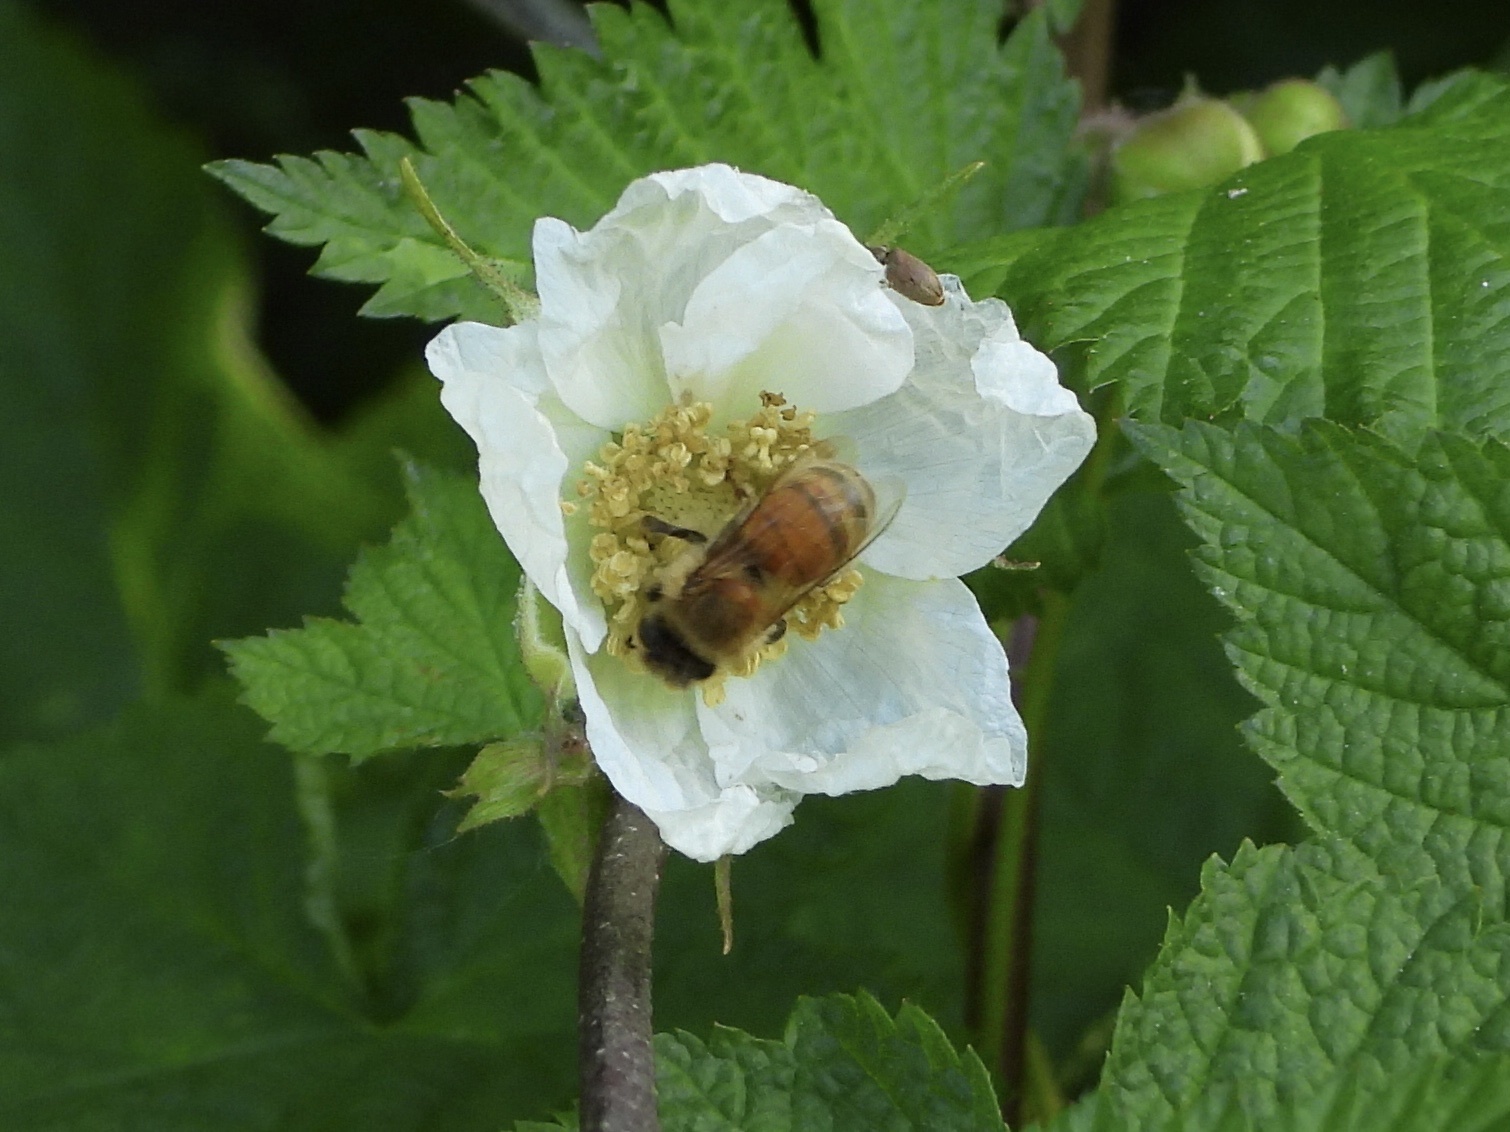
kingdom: Animalia
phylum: Arthropoda
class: Insecta
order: Hymenoptera
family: Apidae
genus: Apis
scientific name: Apis mellifera
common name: Honey bee
